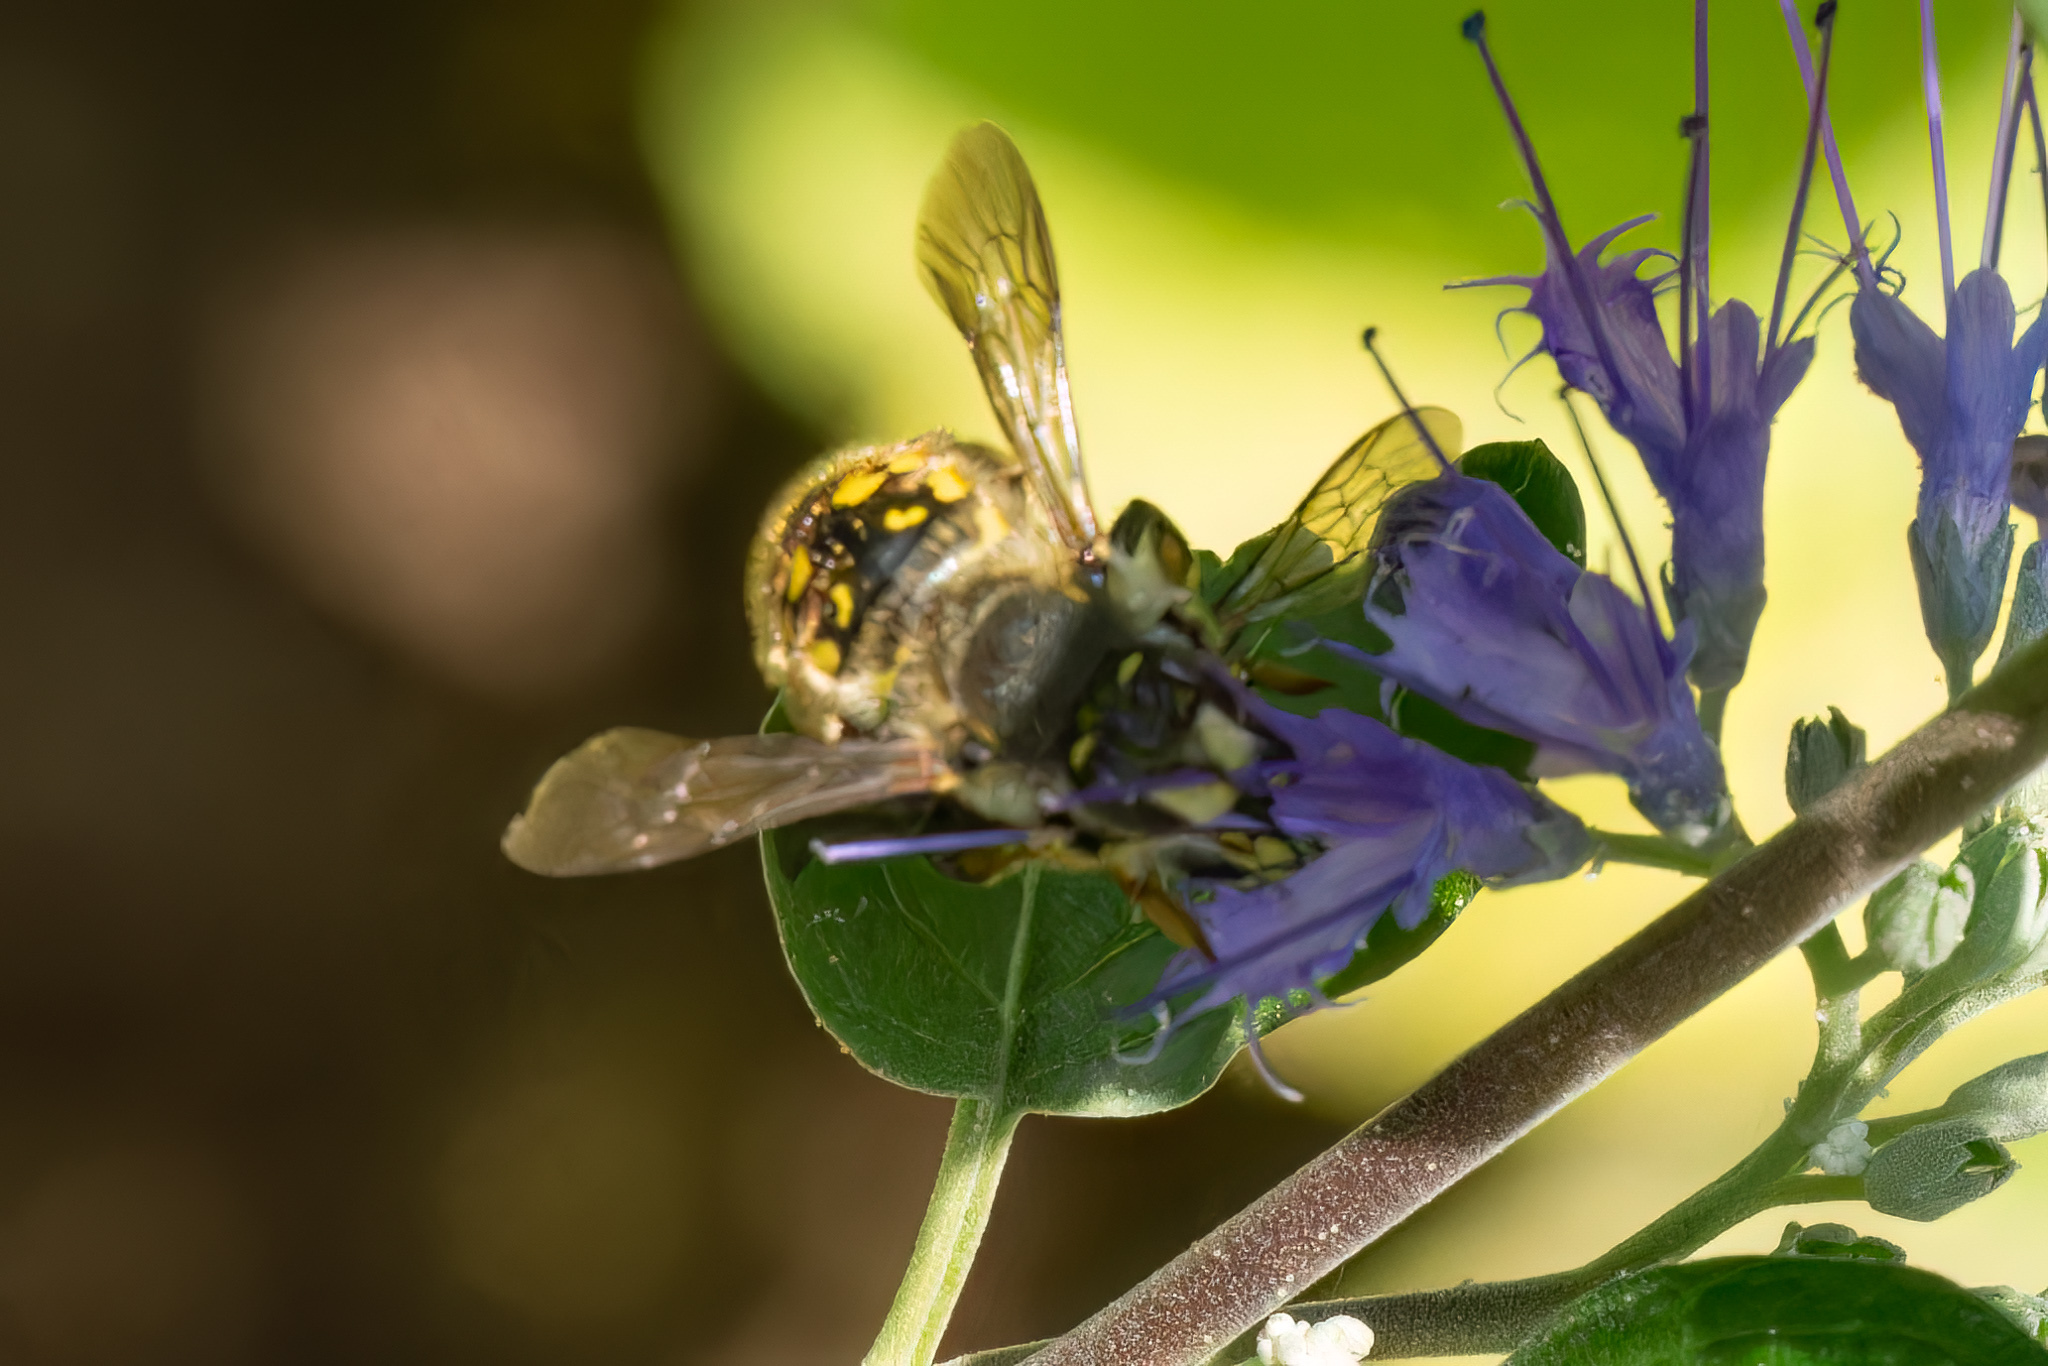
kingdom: Animalia
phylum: Arthropoda
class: Insecta
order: Hymenoptera
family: Megachilidae
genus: Anthidium
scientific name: Anthidium manicatum
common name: Wool carder bee
